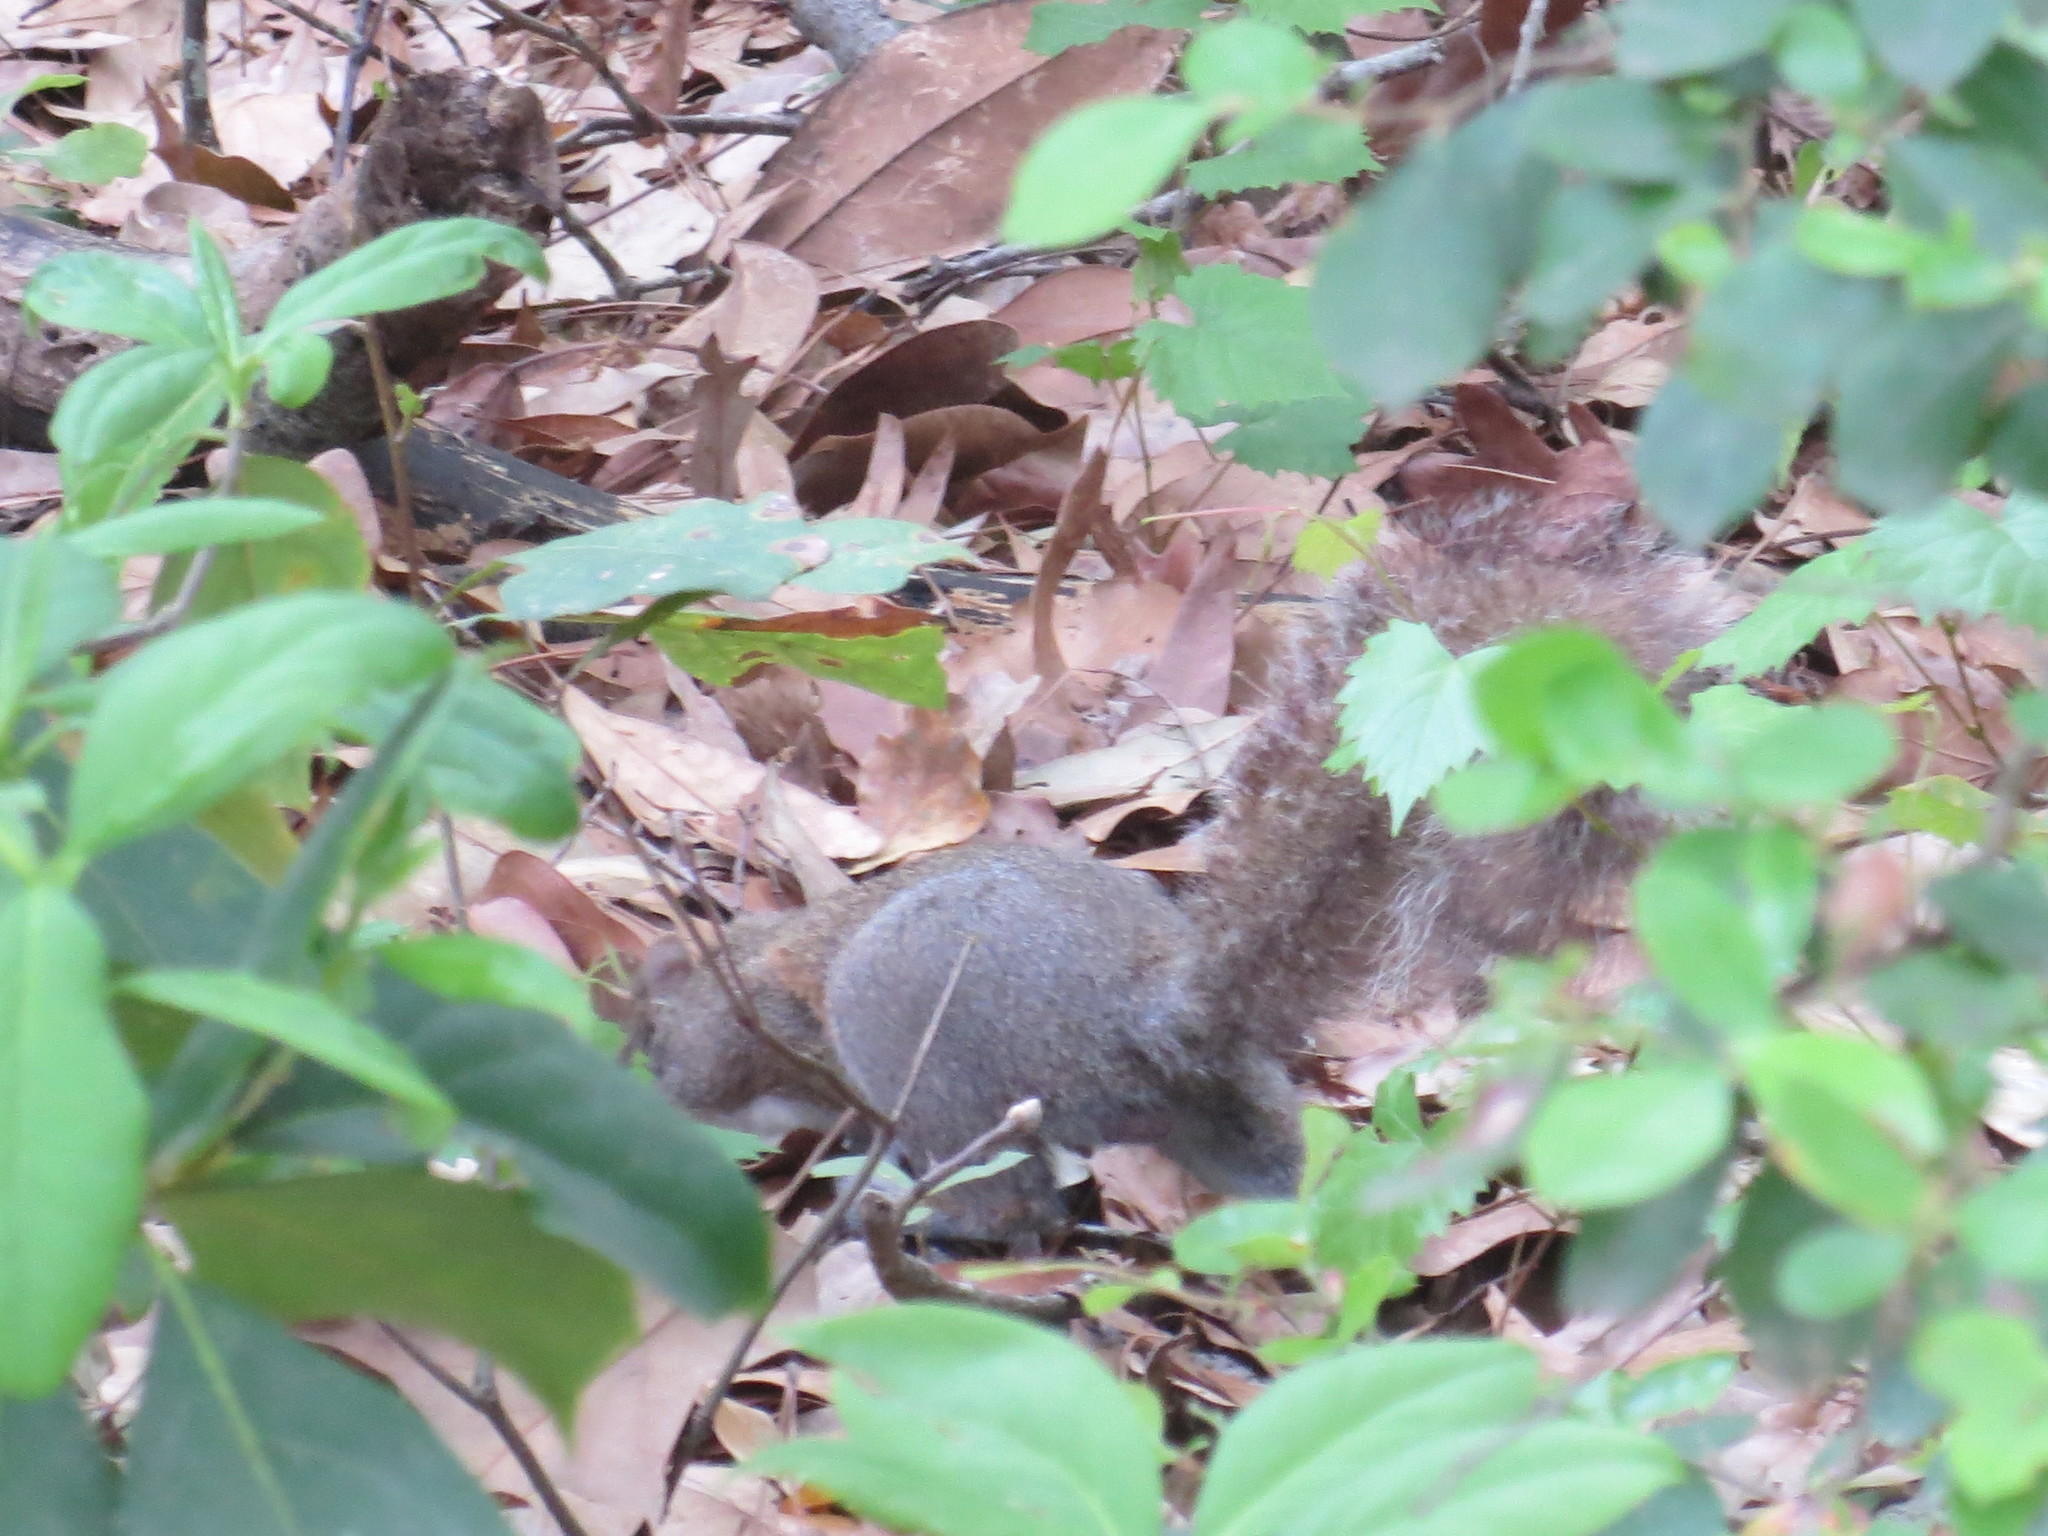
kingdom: Animalia
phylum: Chordata
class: Mammalia
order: Rodentia
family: Sciuridae
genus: Sciurus
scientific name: Sciurus carolinensis
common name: Eastern gray squirrel
